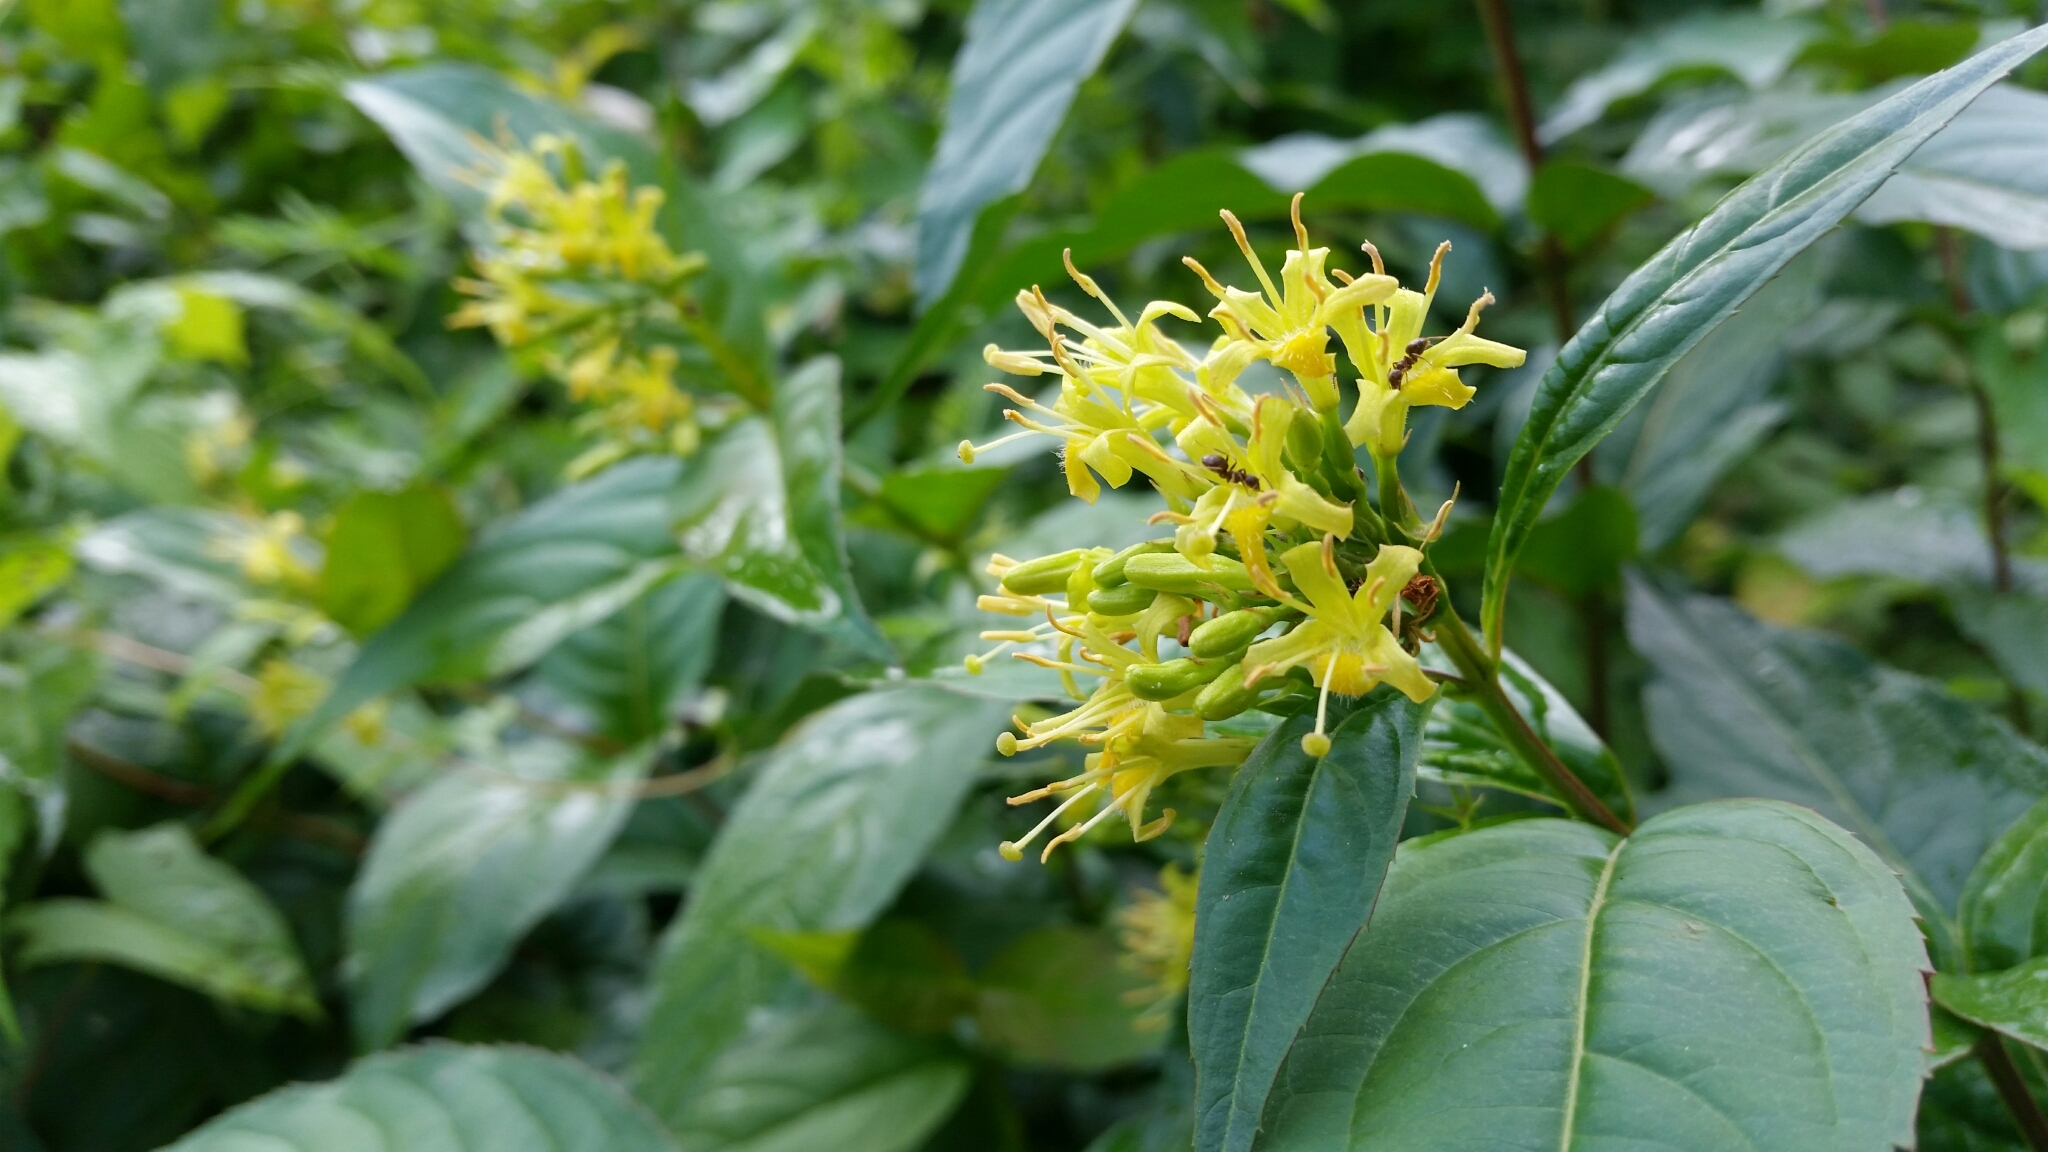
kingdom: Plantae
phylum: Tracheophyta
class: Magnoliopsida
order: Dipsacales
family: Caprifoliaceae
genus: Diervilla
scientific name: Diervilla lonicera
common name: Bush-honeysuckle
